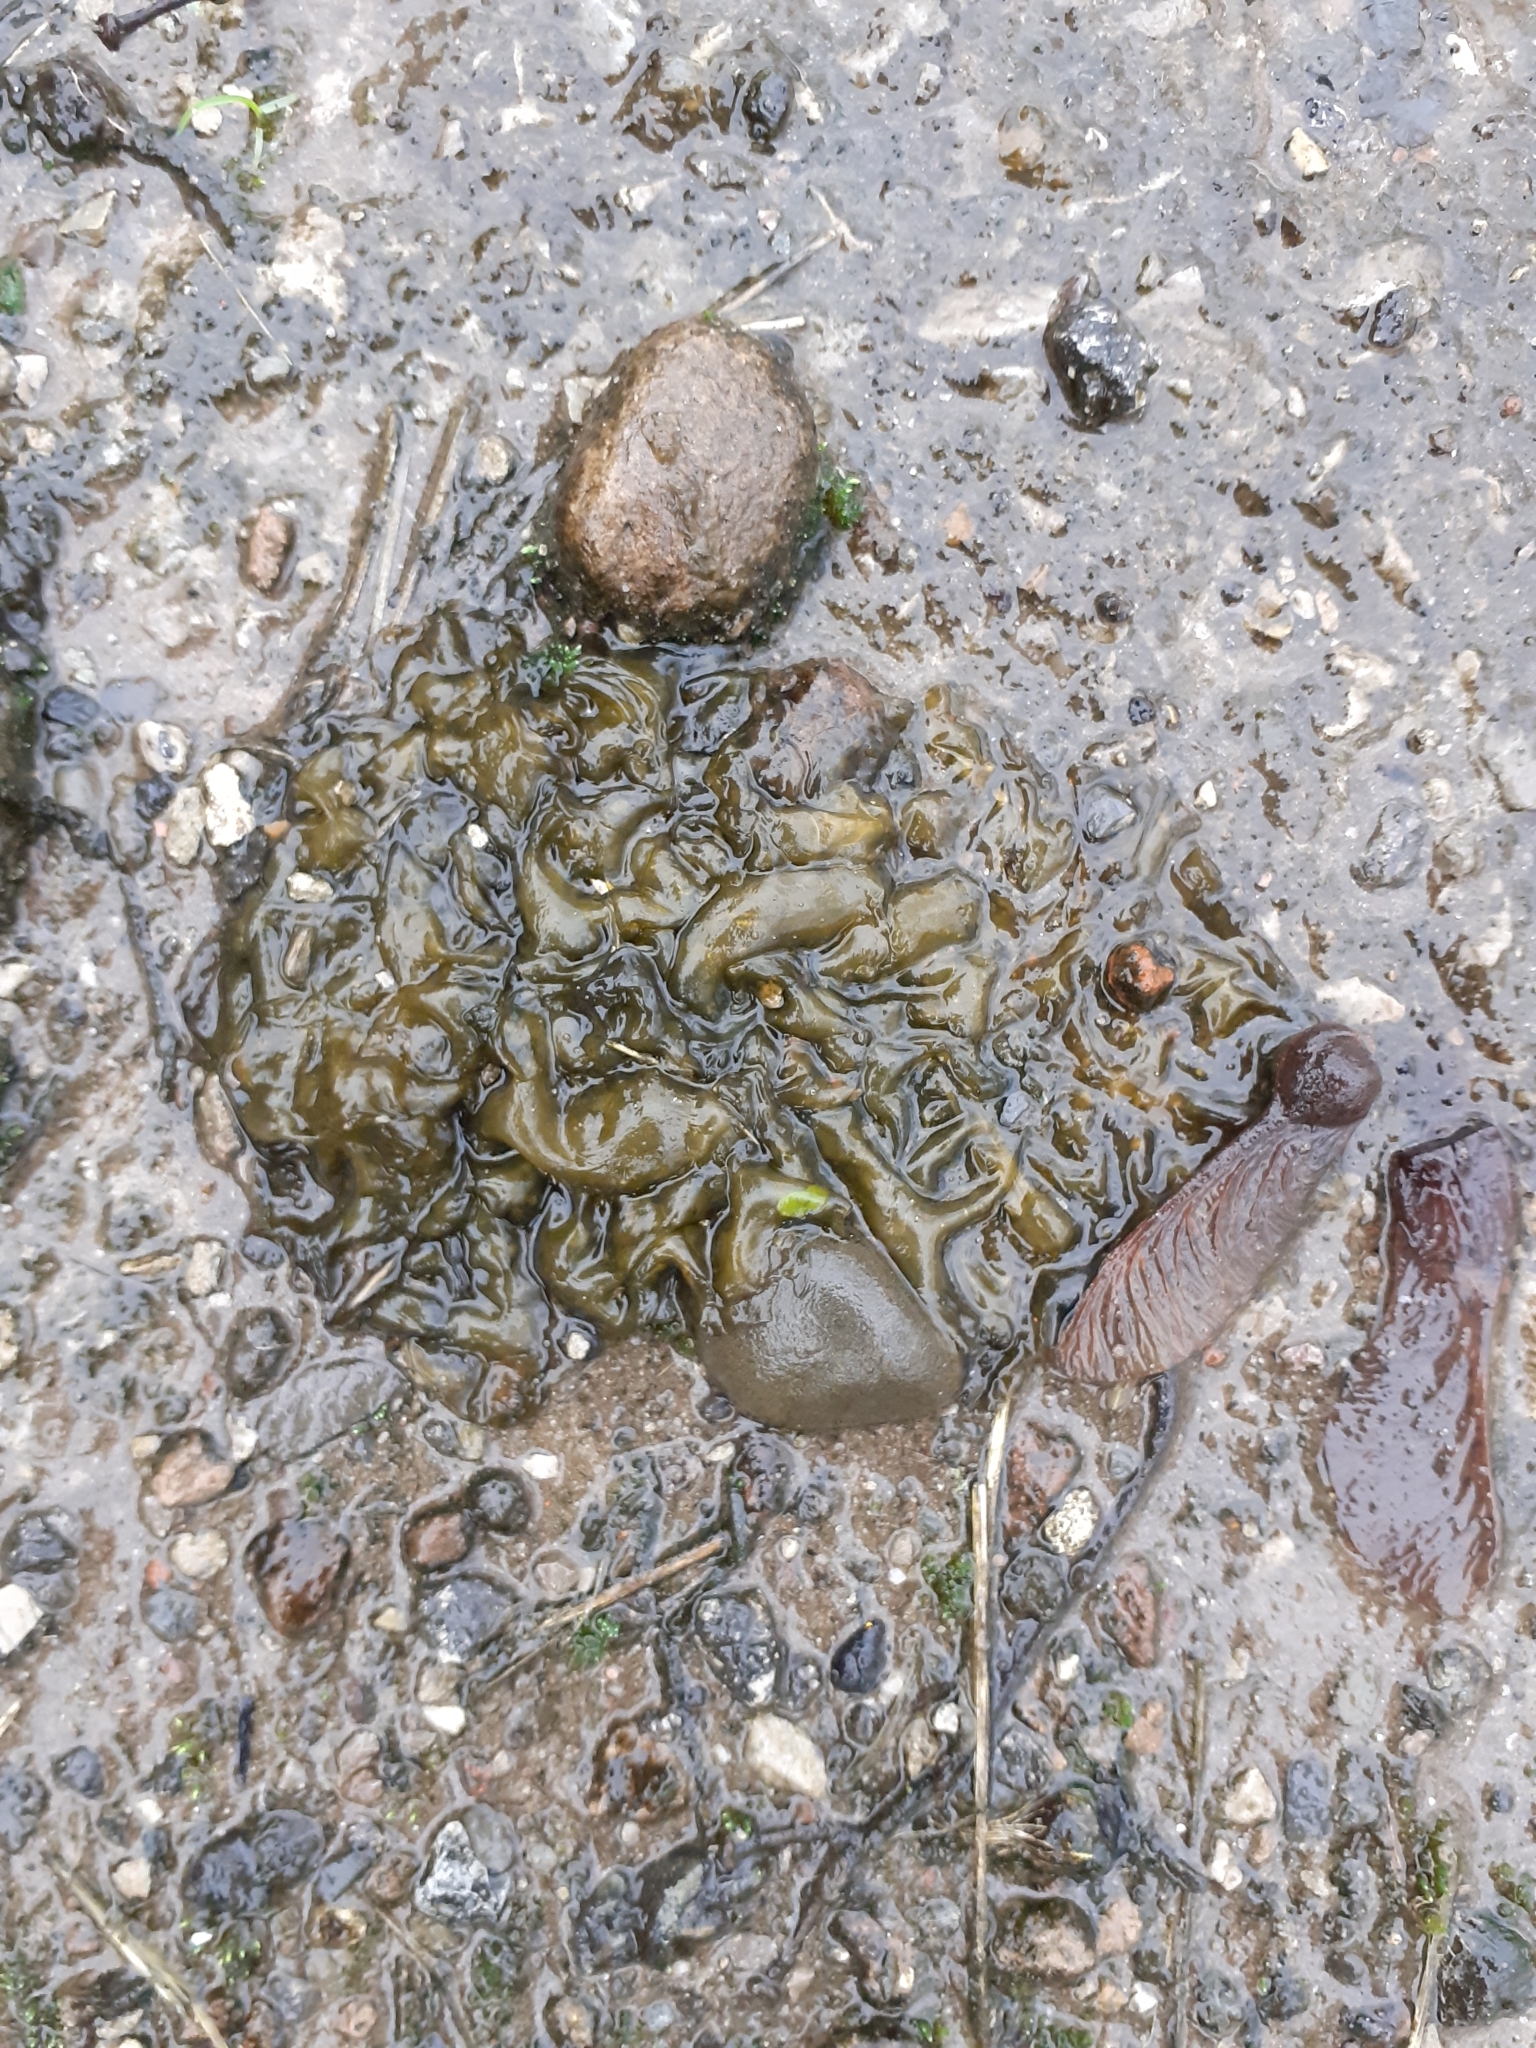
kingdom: Bacteria
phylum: Cyanobacteria
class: Cyanobacteriia
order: Cyanobacteriales
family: Nostocaceae
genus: Nostoc
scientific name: Nostoc commune
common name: Star jelly
